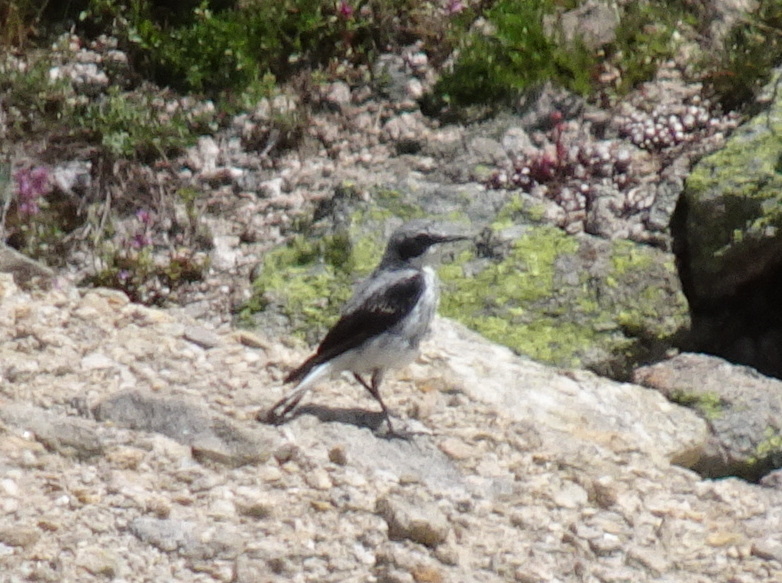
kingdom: Animalia
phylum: Chordata
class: Aves
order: Passeriformes
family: Muscicapidae
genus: Oenanthe
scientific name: Oenanthe oenanthe
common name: Northern wheatear
